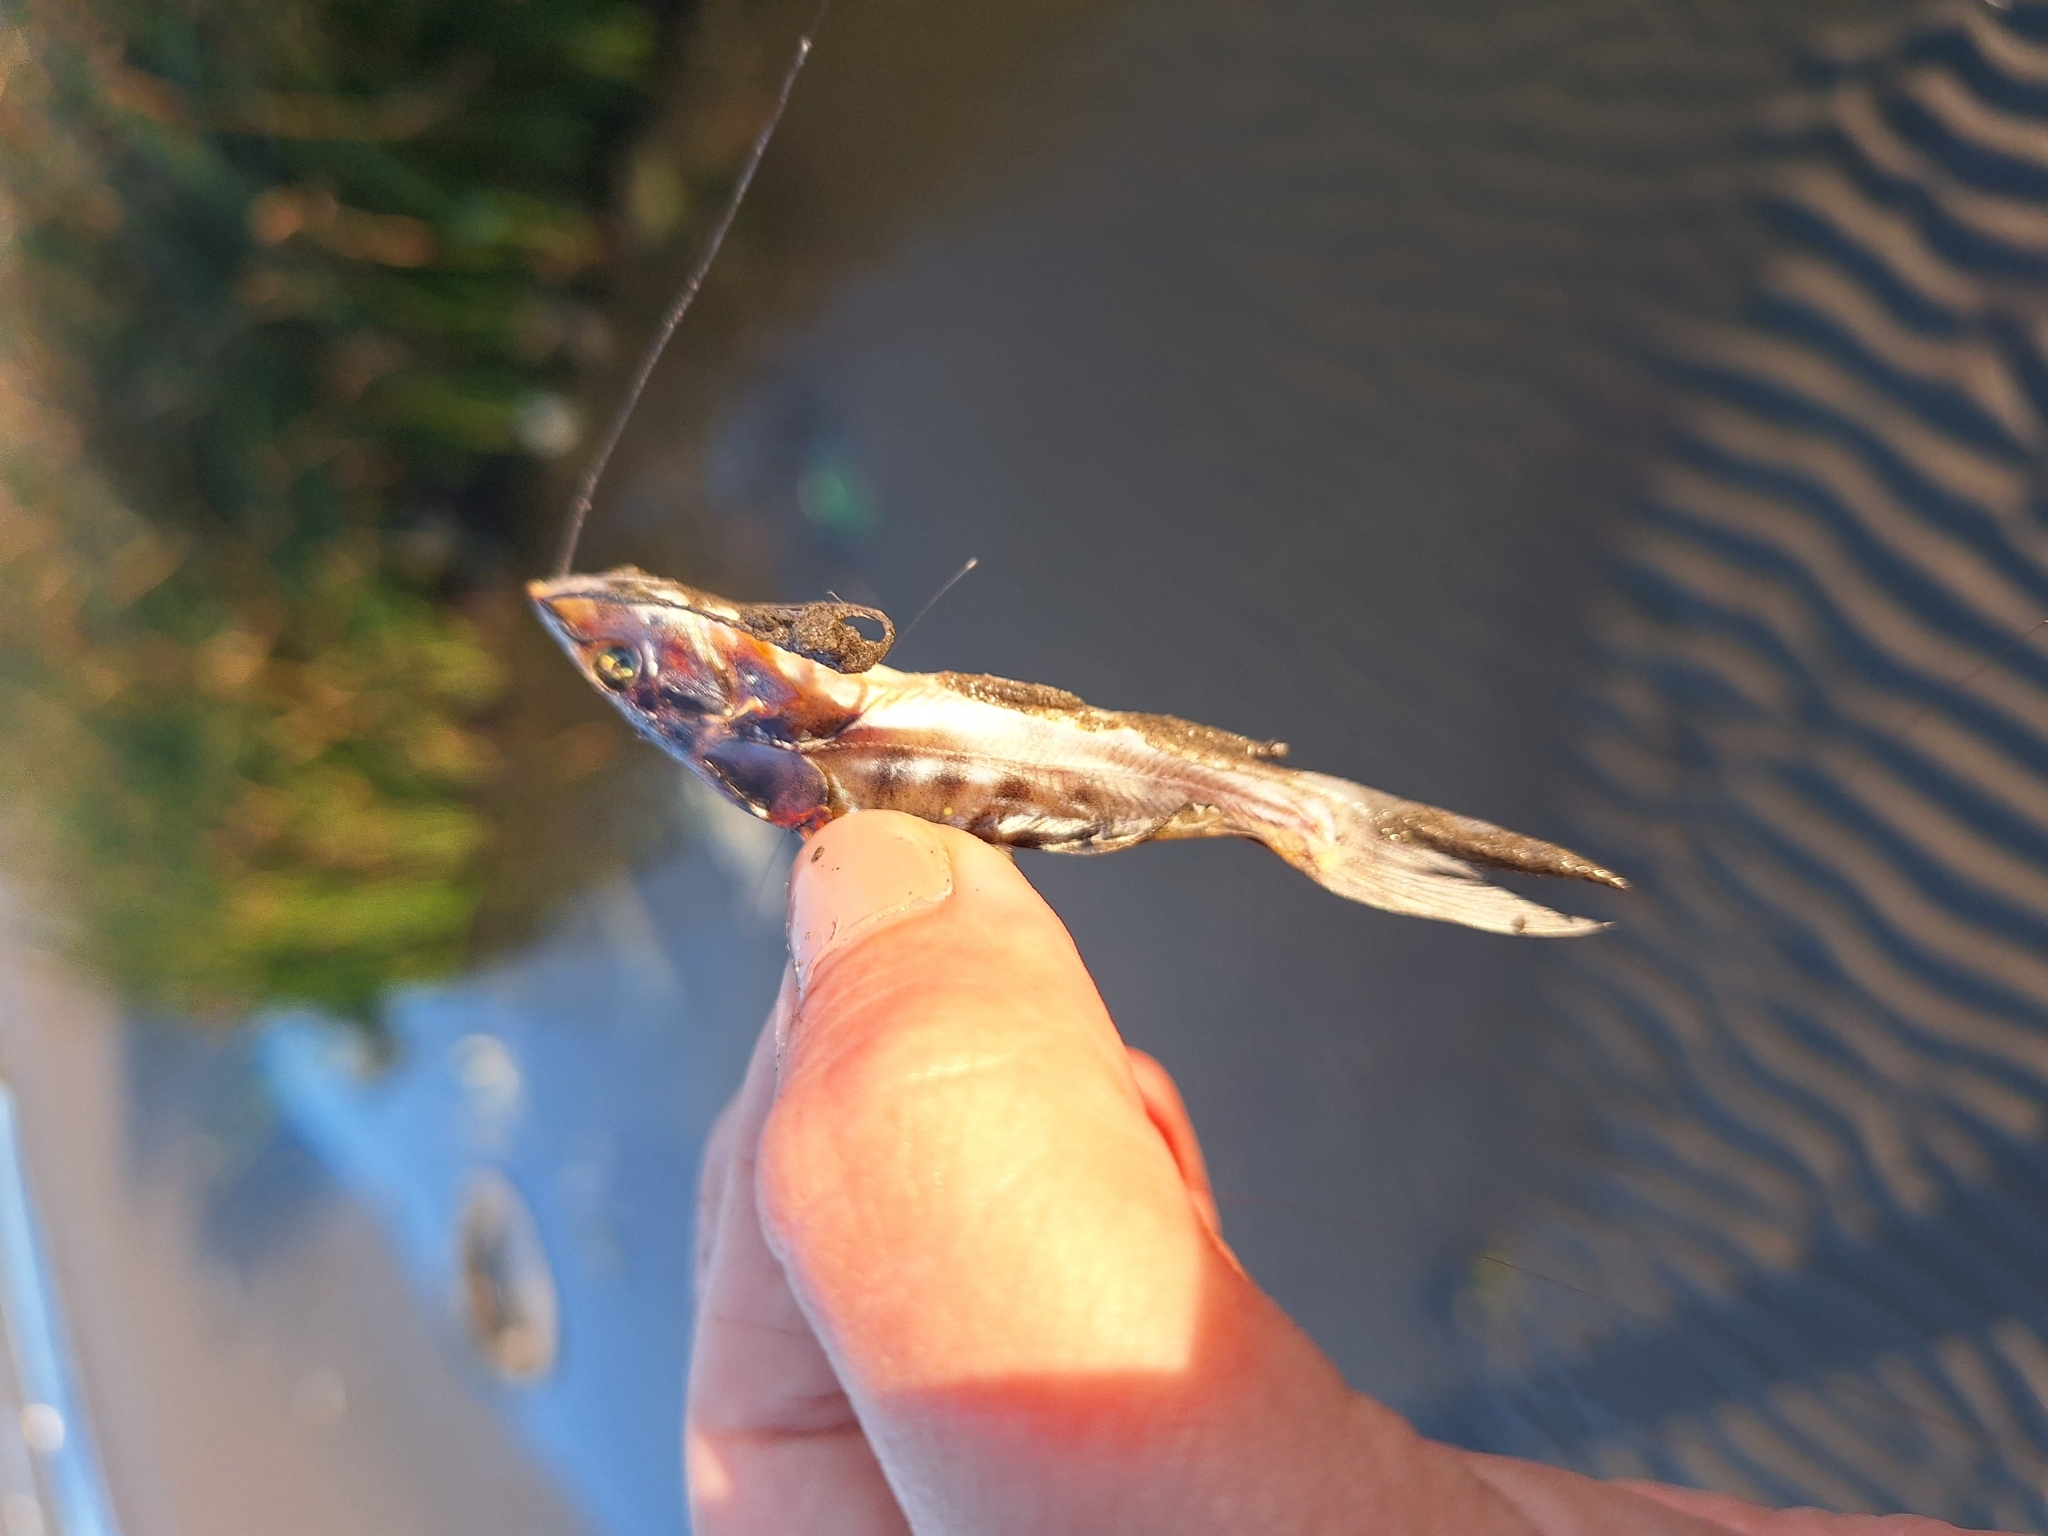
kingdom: Animalia
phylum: Chordata
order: Siluriformes
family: Pimelodidae
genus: Pimelodus
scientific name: Pimelodus maculatus
